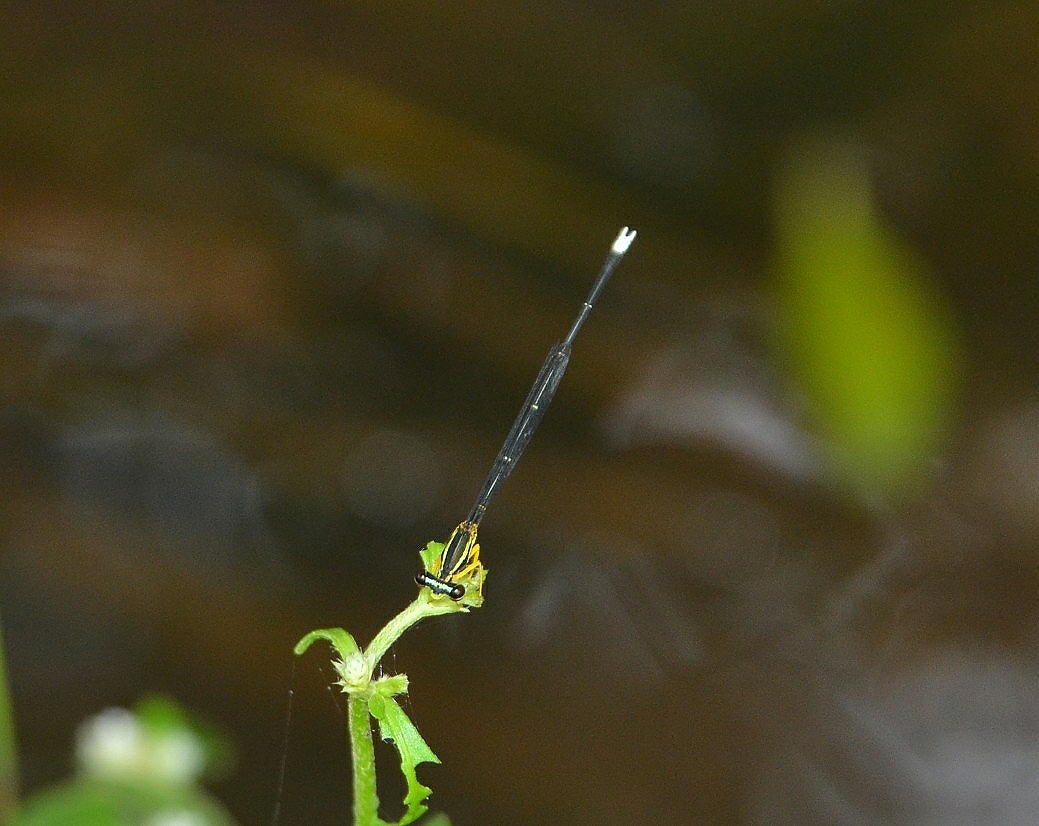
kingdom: Animalia
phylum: Arthropoda
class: Insecta
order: Odonata
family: Platycnemididae
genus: Copera
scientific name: Copera marginipes
